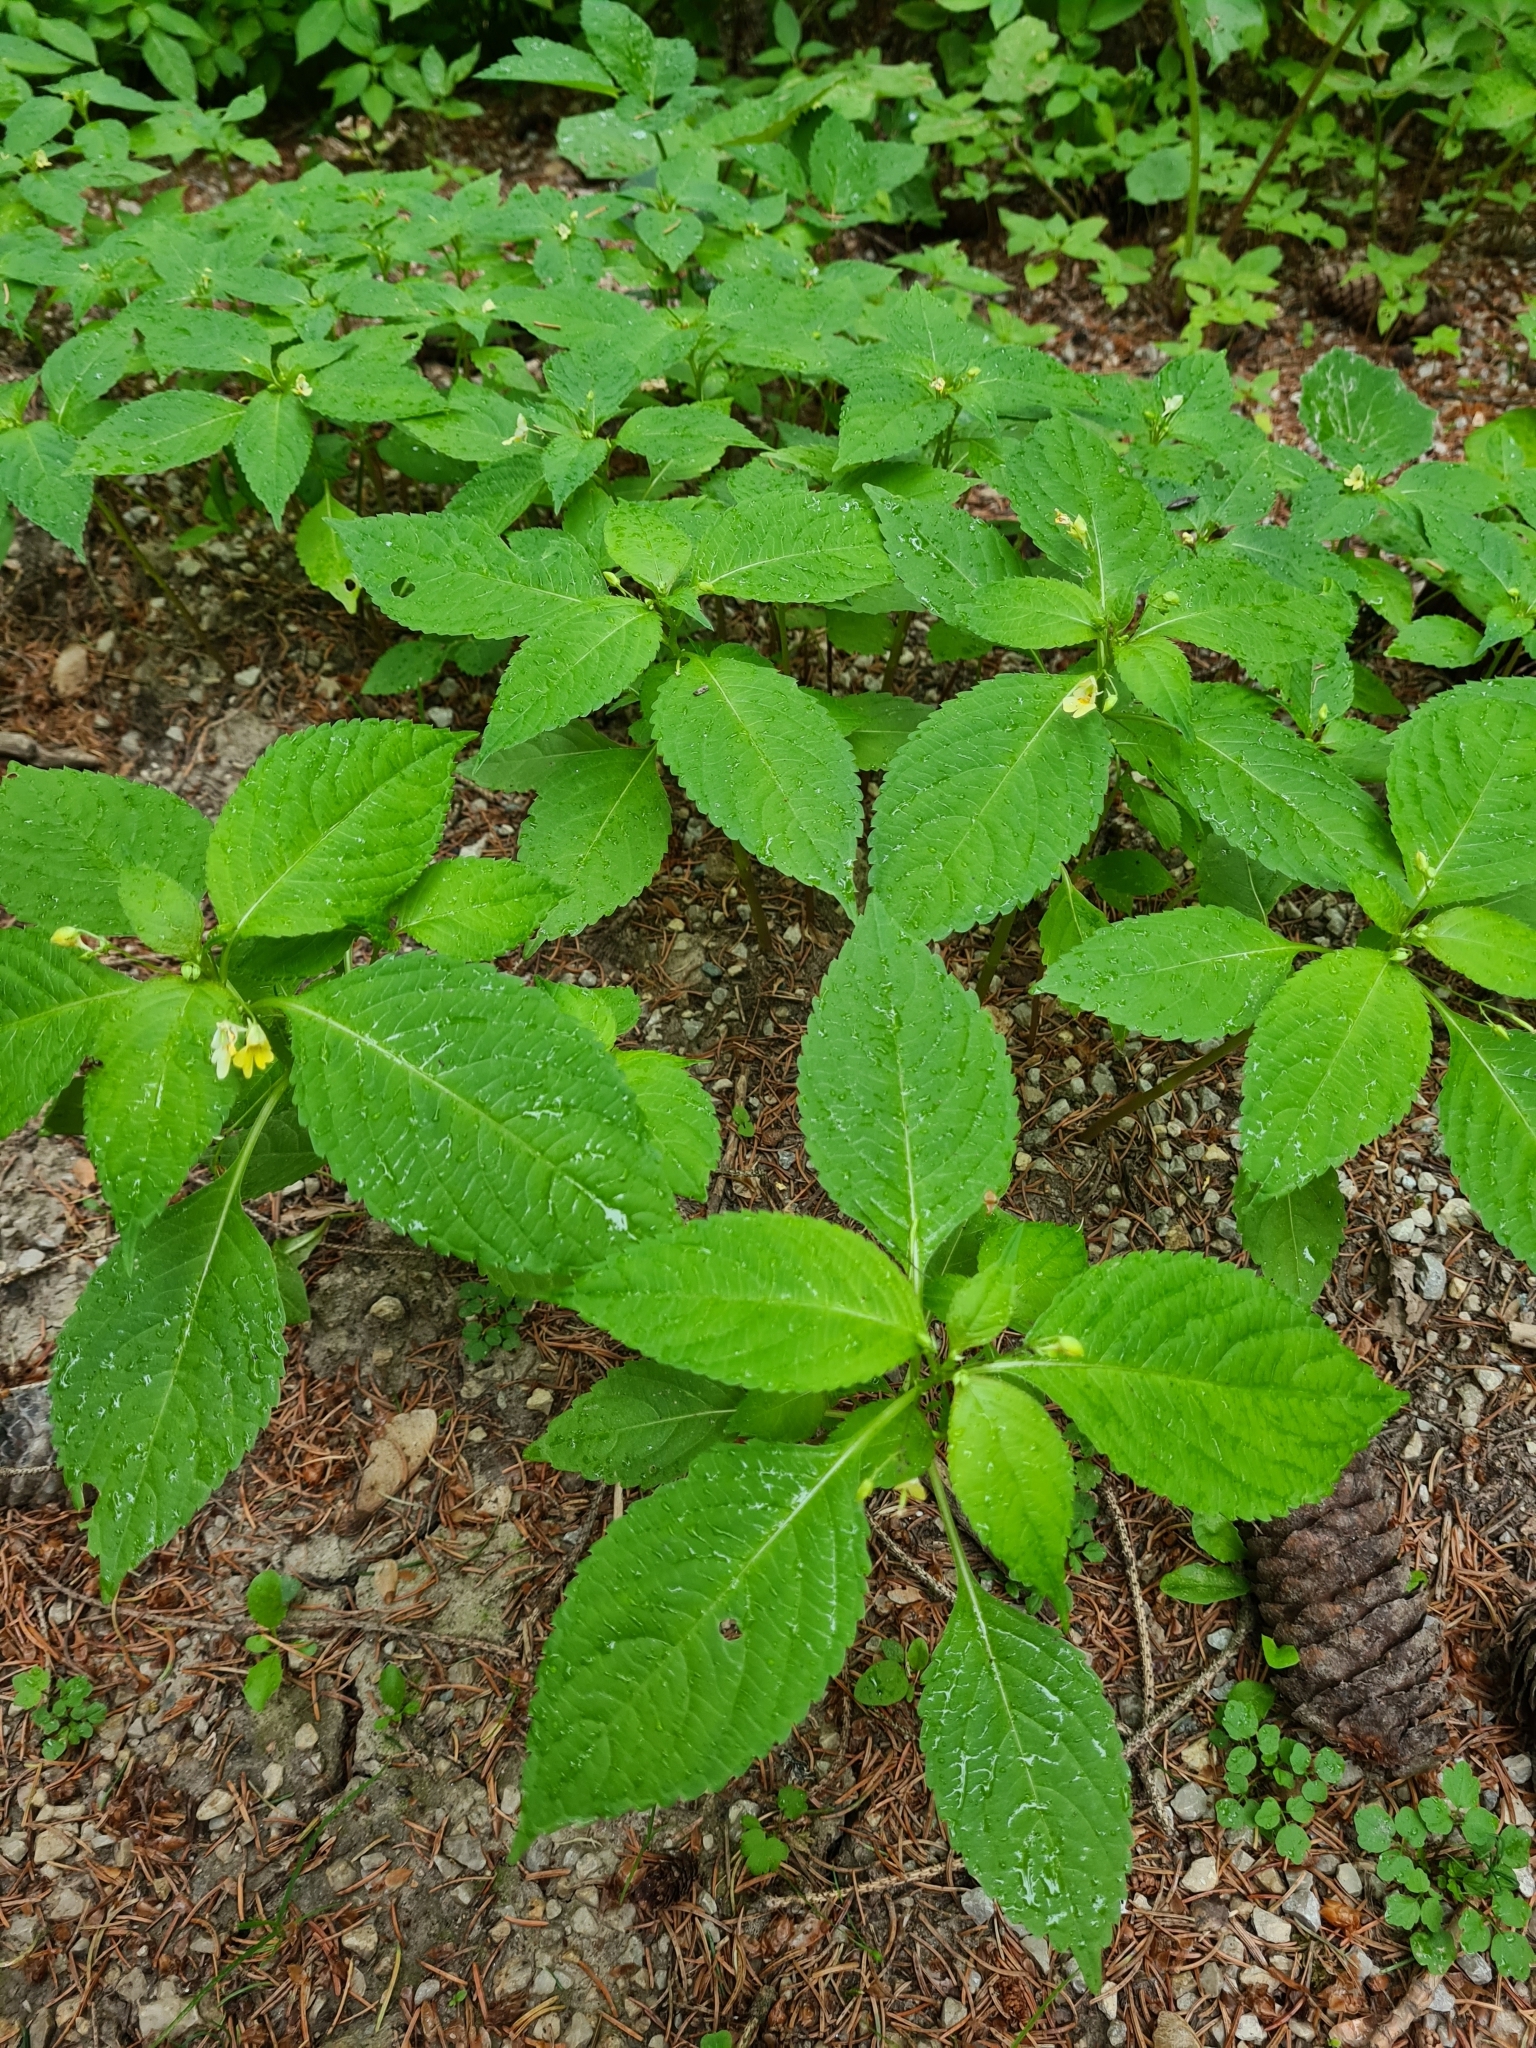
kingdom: Plantae
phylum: Tracheophyta
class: Magnoliopsida
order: Ericales
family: Balsaminaceae
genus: Impatiens
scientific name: Impatiens parviflora
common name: Small balsam
